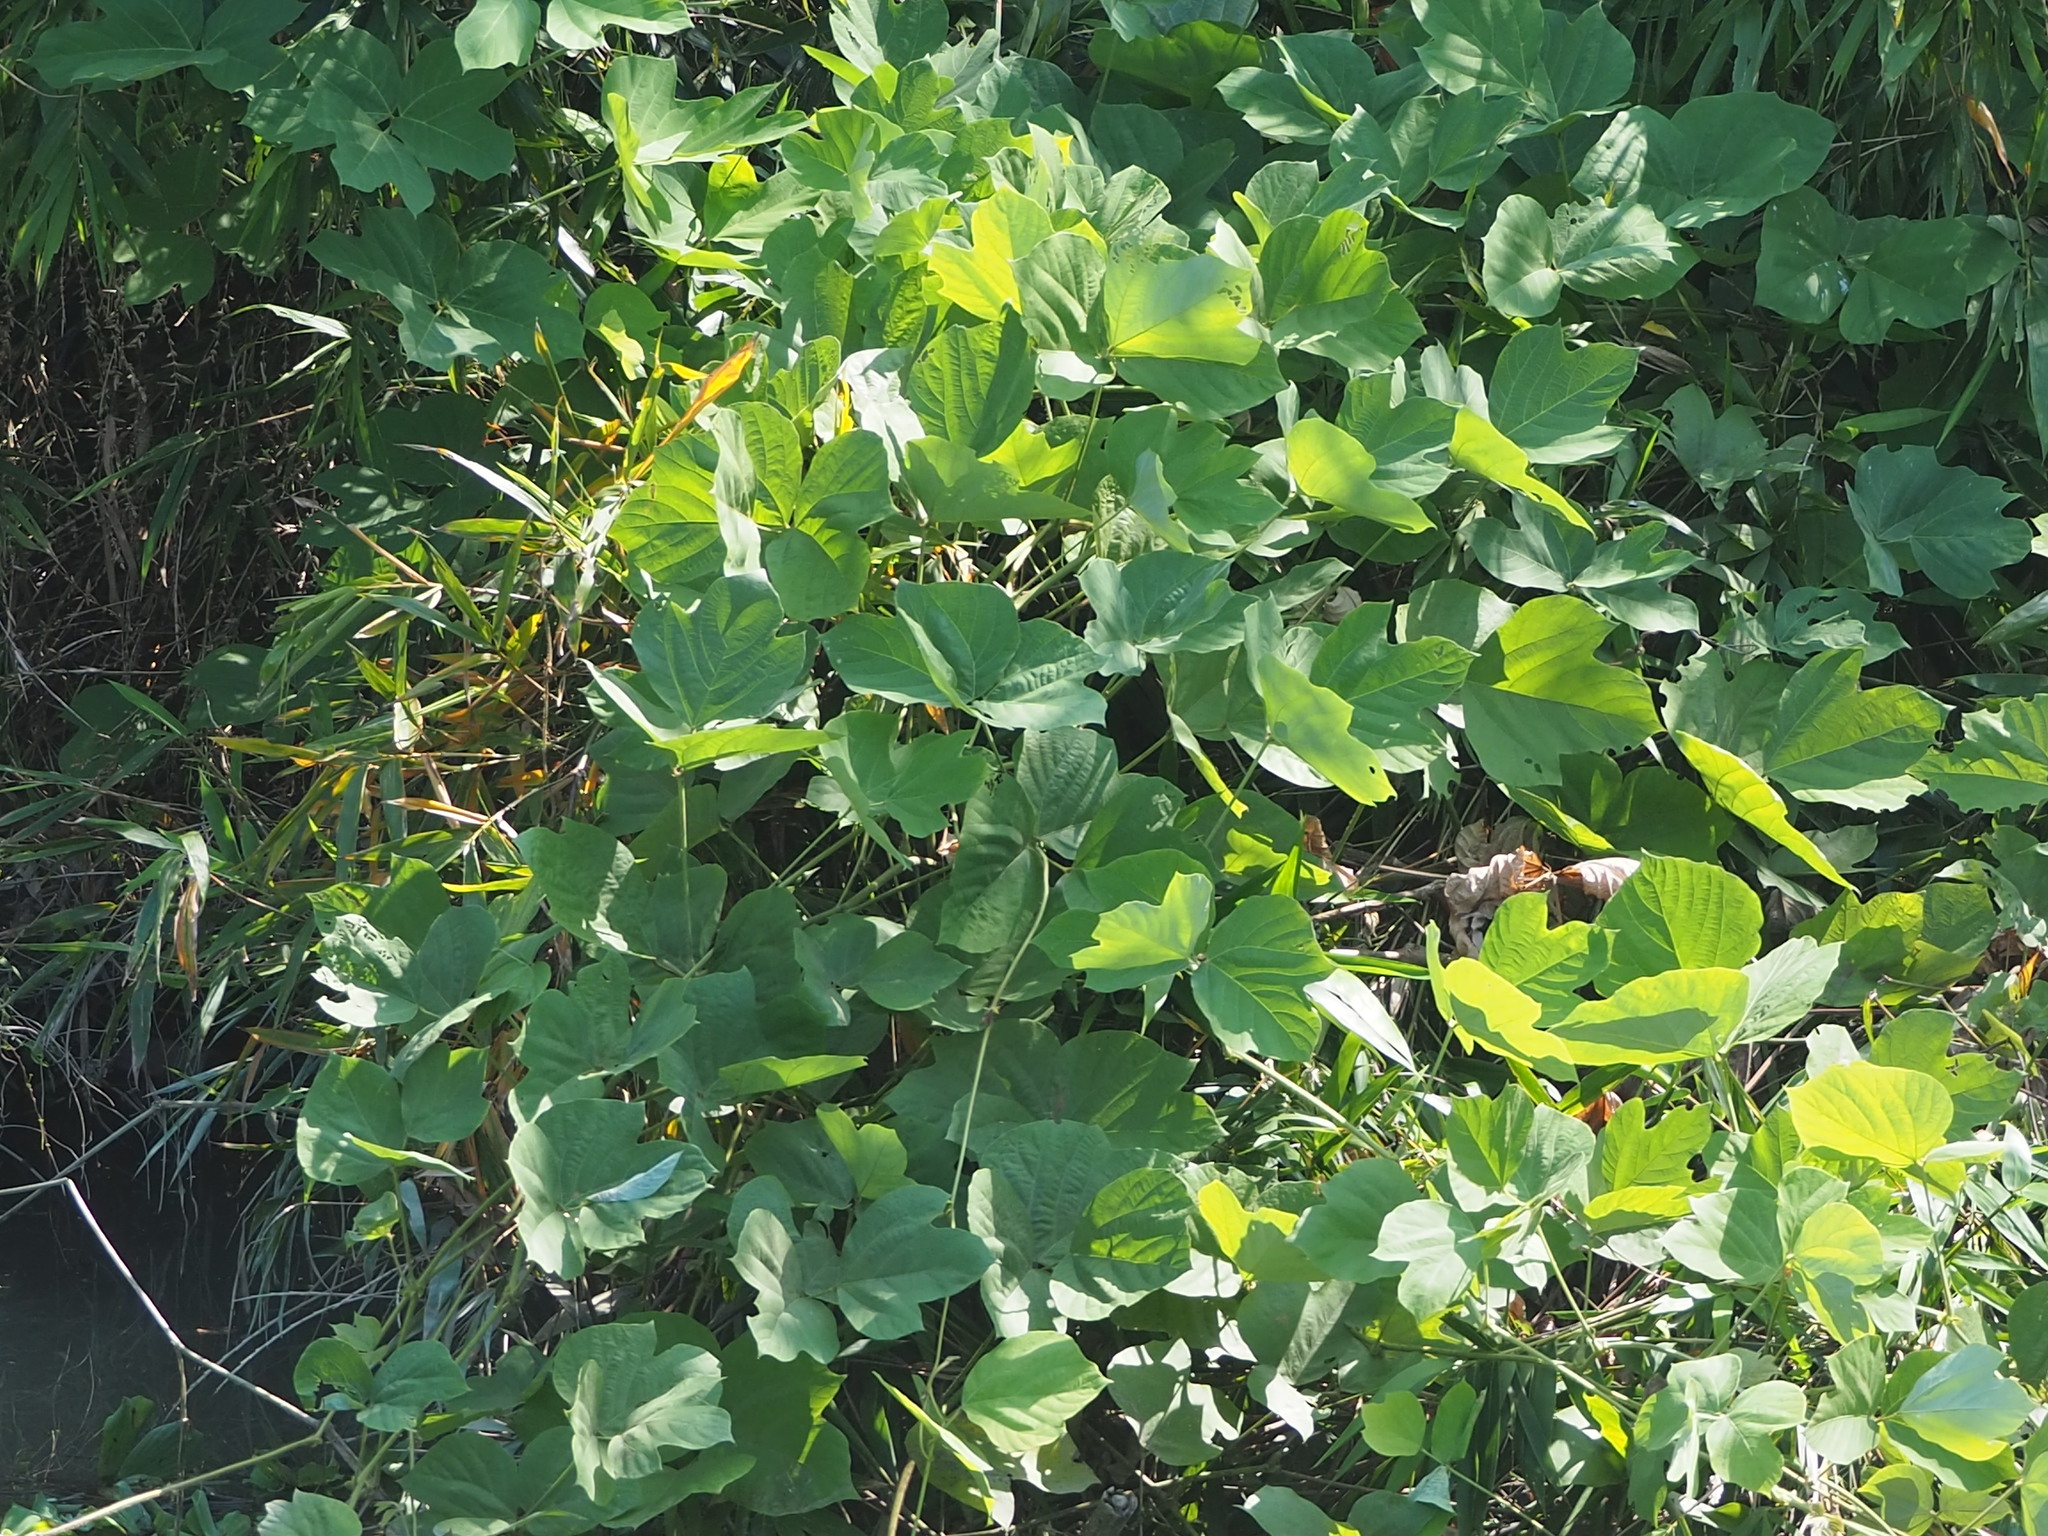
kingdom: Plantae
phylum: Tracheophyta
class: Magnoliopsida
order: Fabales
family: Fabaceae
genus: Pueraria
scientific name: Pueraria montana
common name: Kudzu
